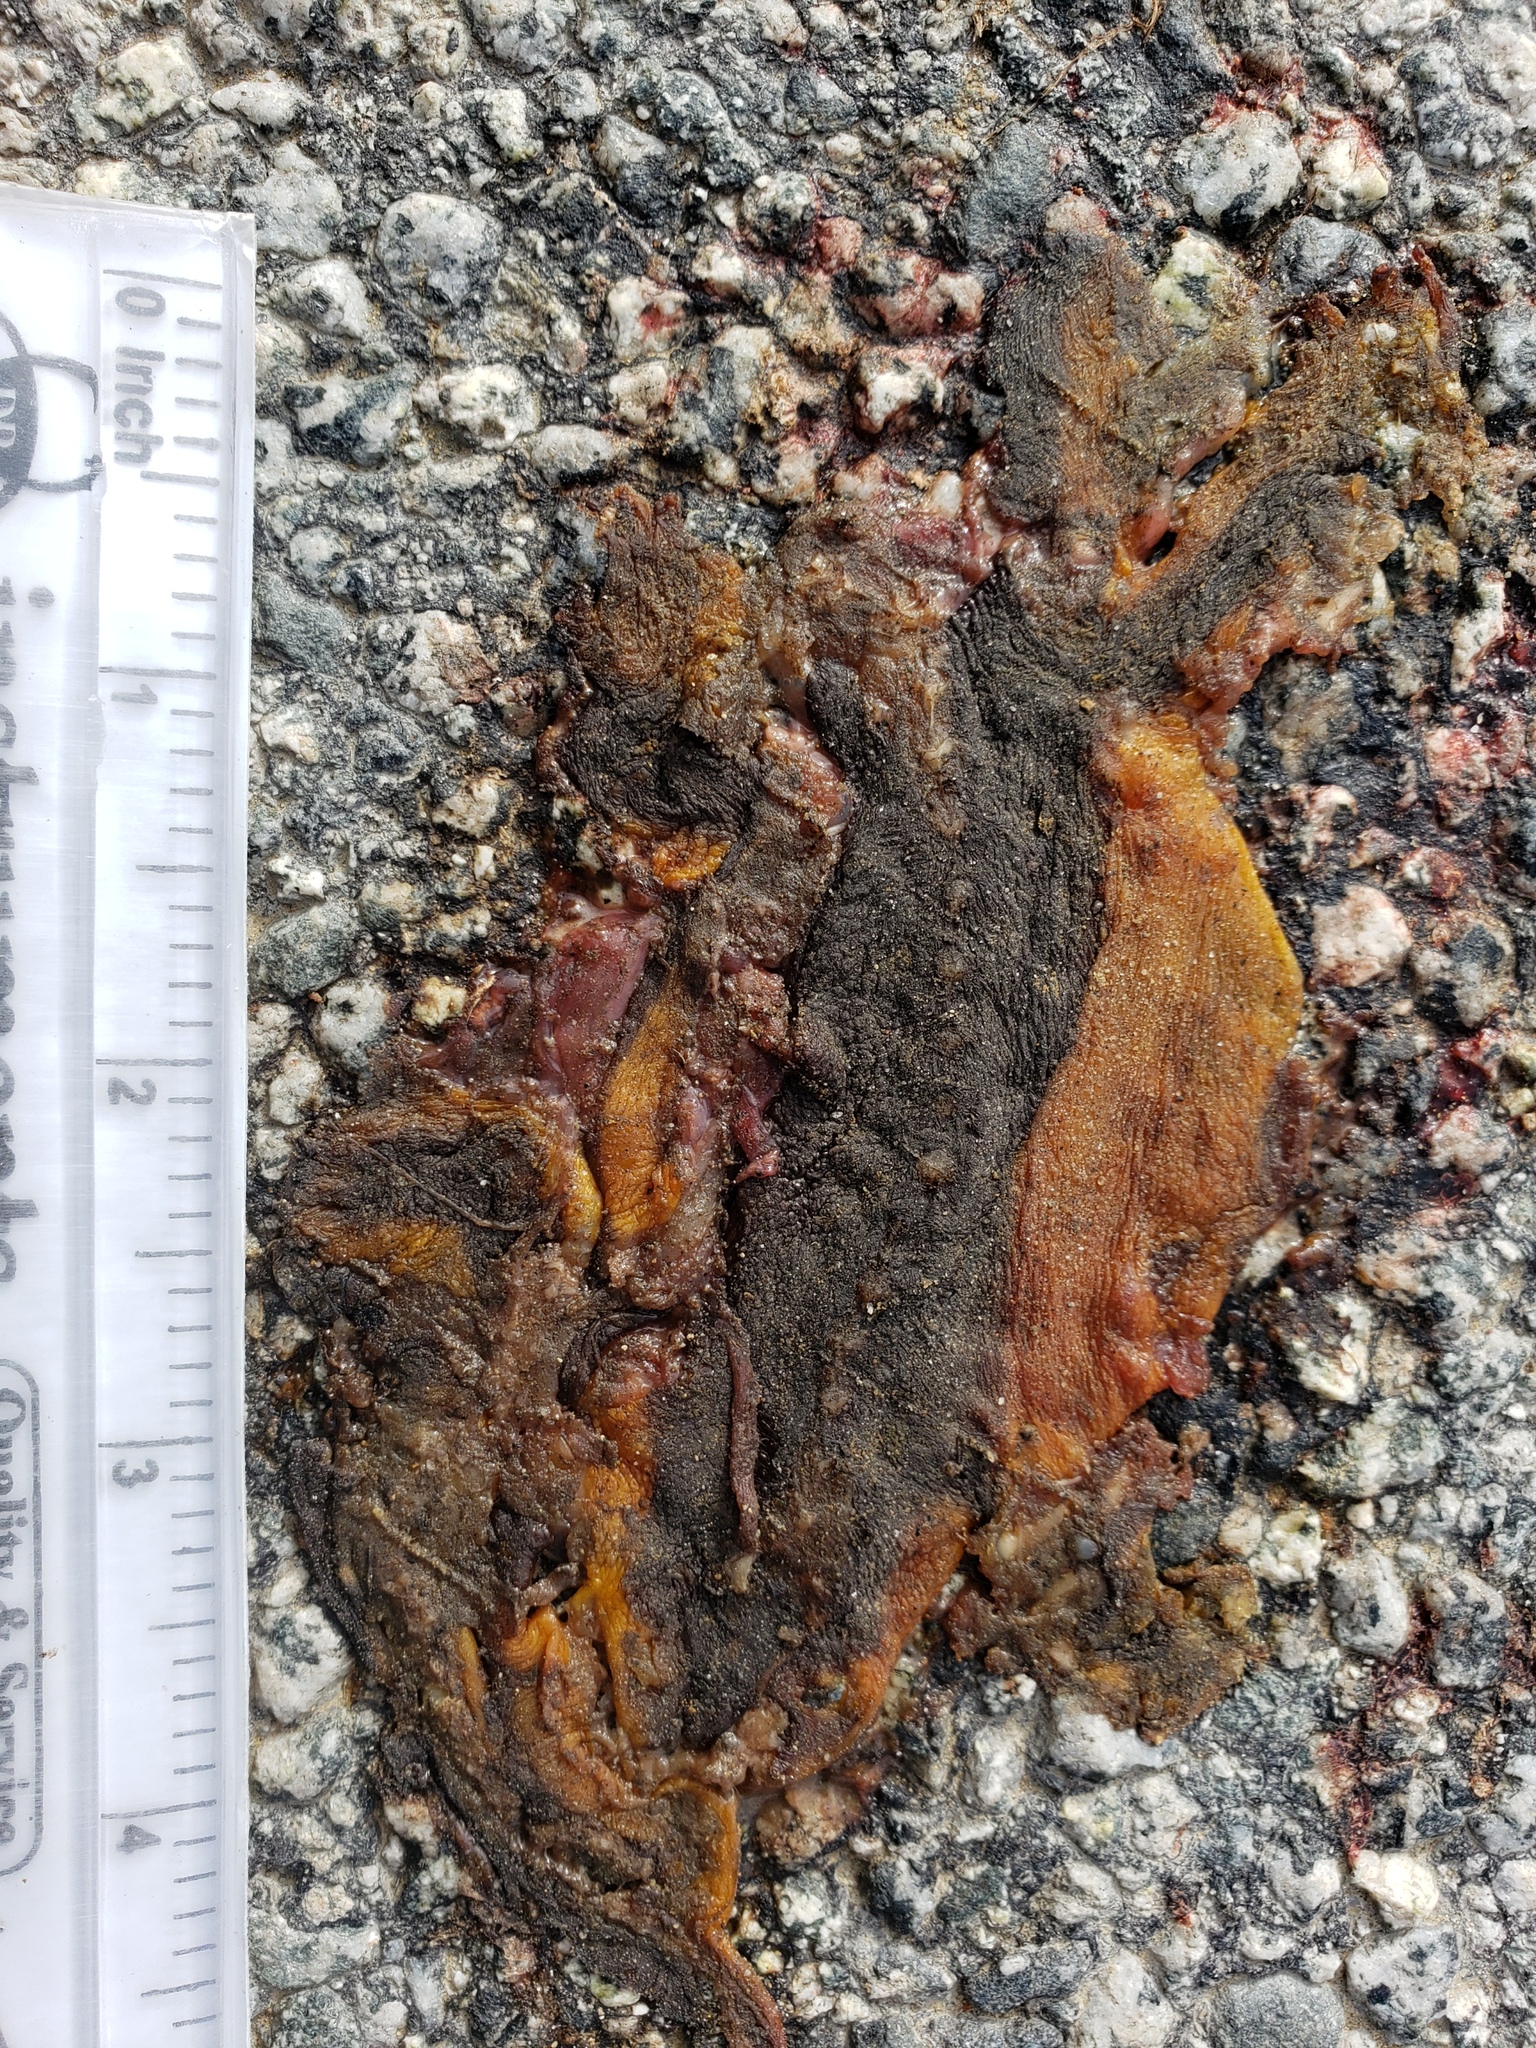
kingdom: Animalia
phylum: Chordata
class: Amphibia
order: Caudata
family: Salamandridae
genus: Taricha
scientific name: Taricha
